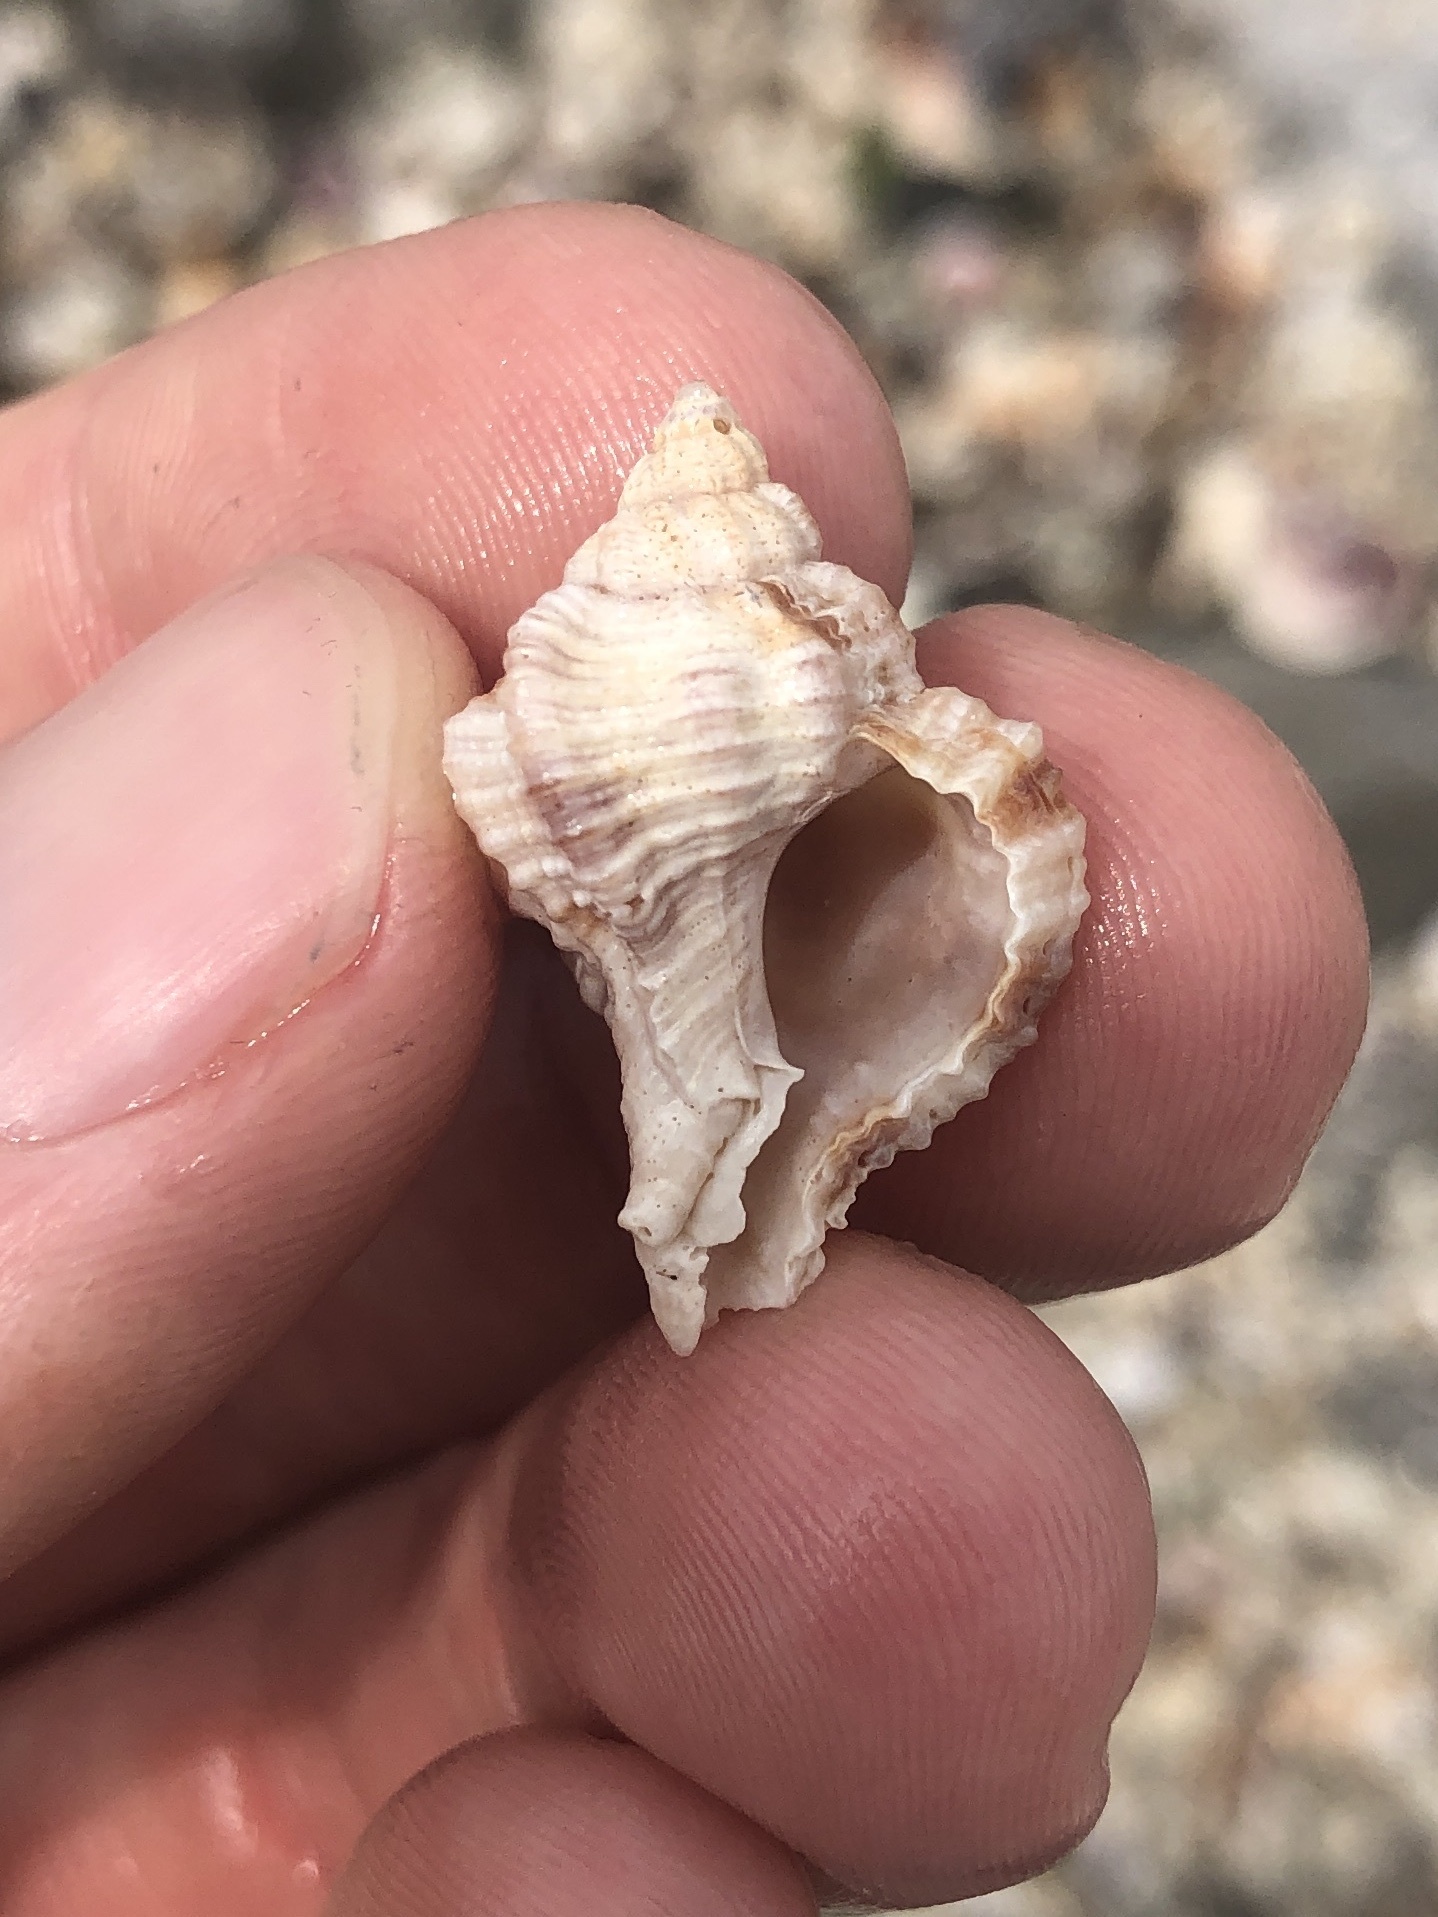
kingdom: Animalia
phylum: Mollusca
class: Gastropoda
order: Neogastropoda
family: Muricidae
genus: Phyllonotus
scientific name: Phyllonotus pomum
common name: Apple murex
